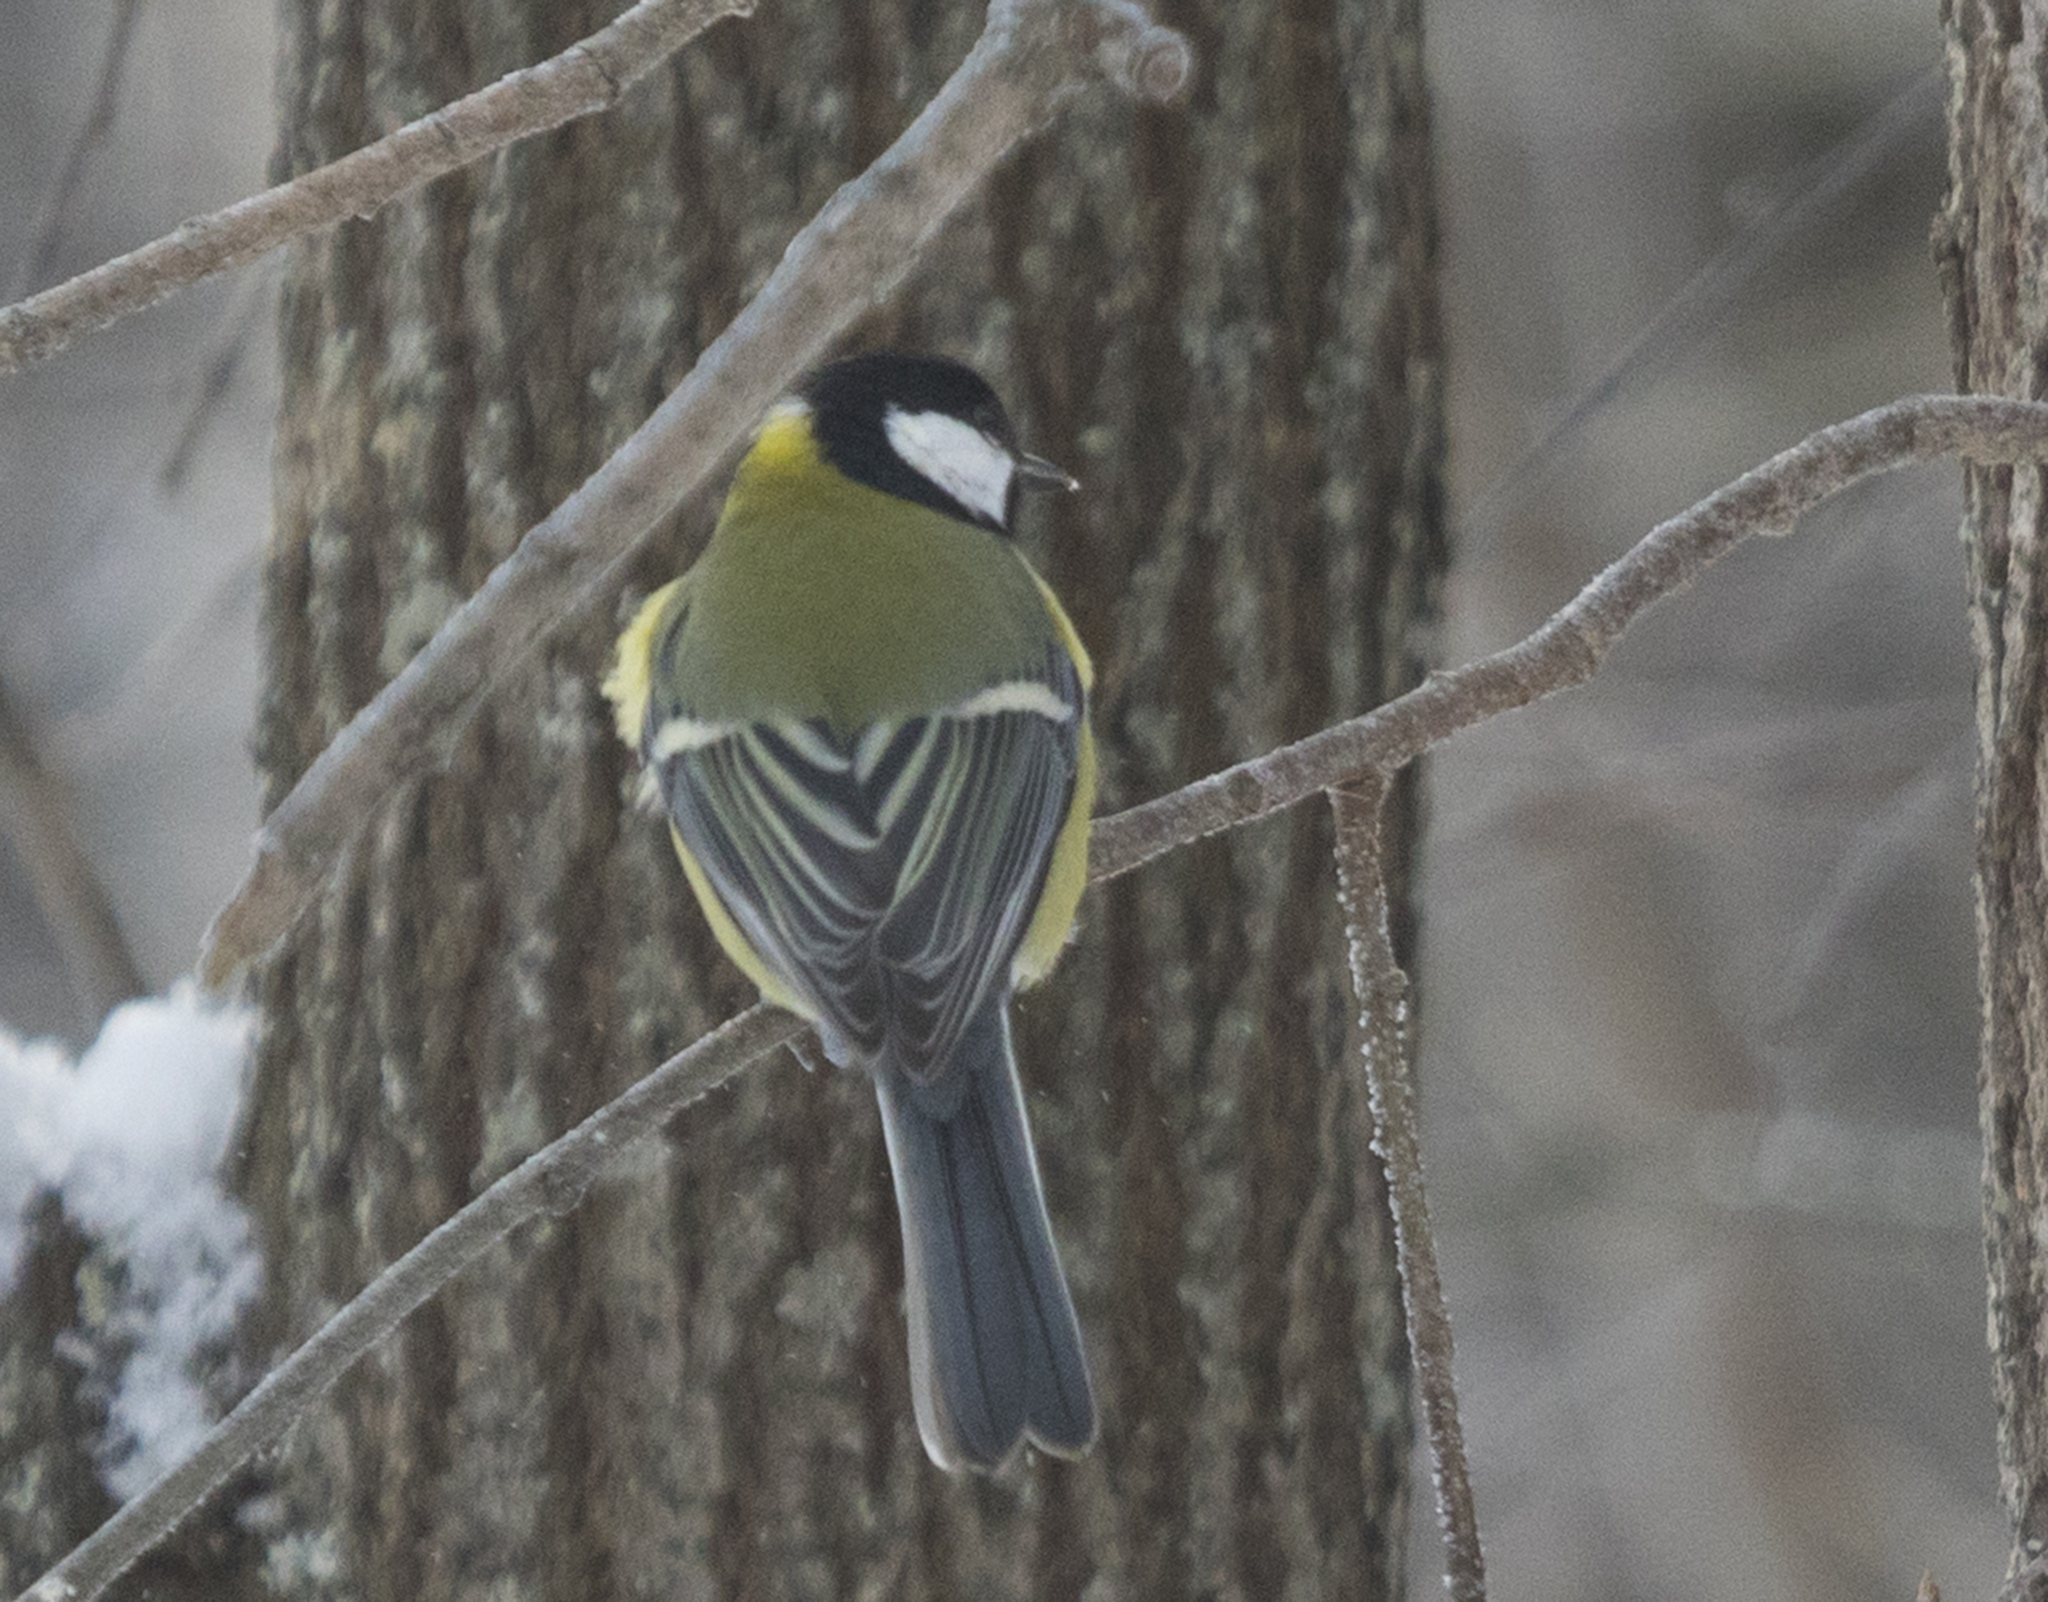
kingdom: Animalia
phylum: Chordata
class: Aves
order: Passeriformes
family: Paridae
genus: Parus
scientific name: Parus major
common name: Great tit
